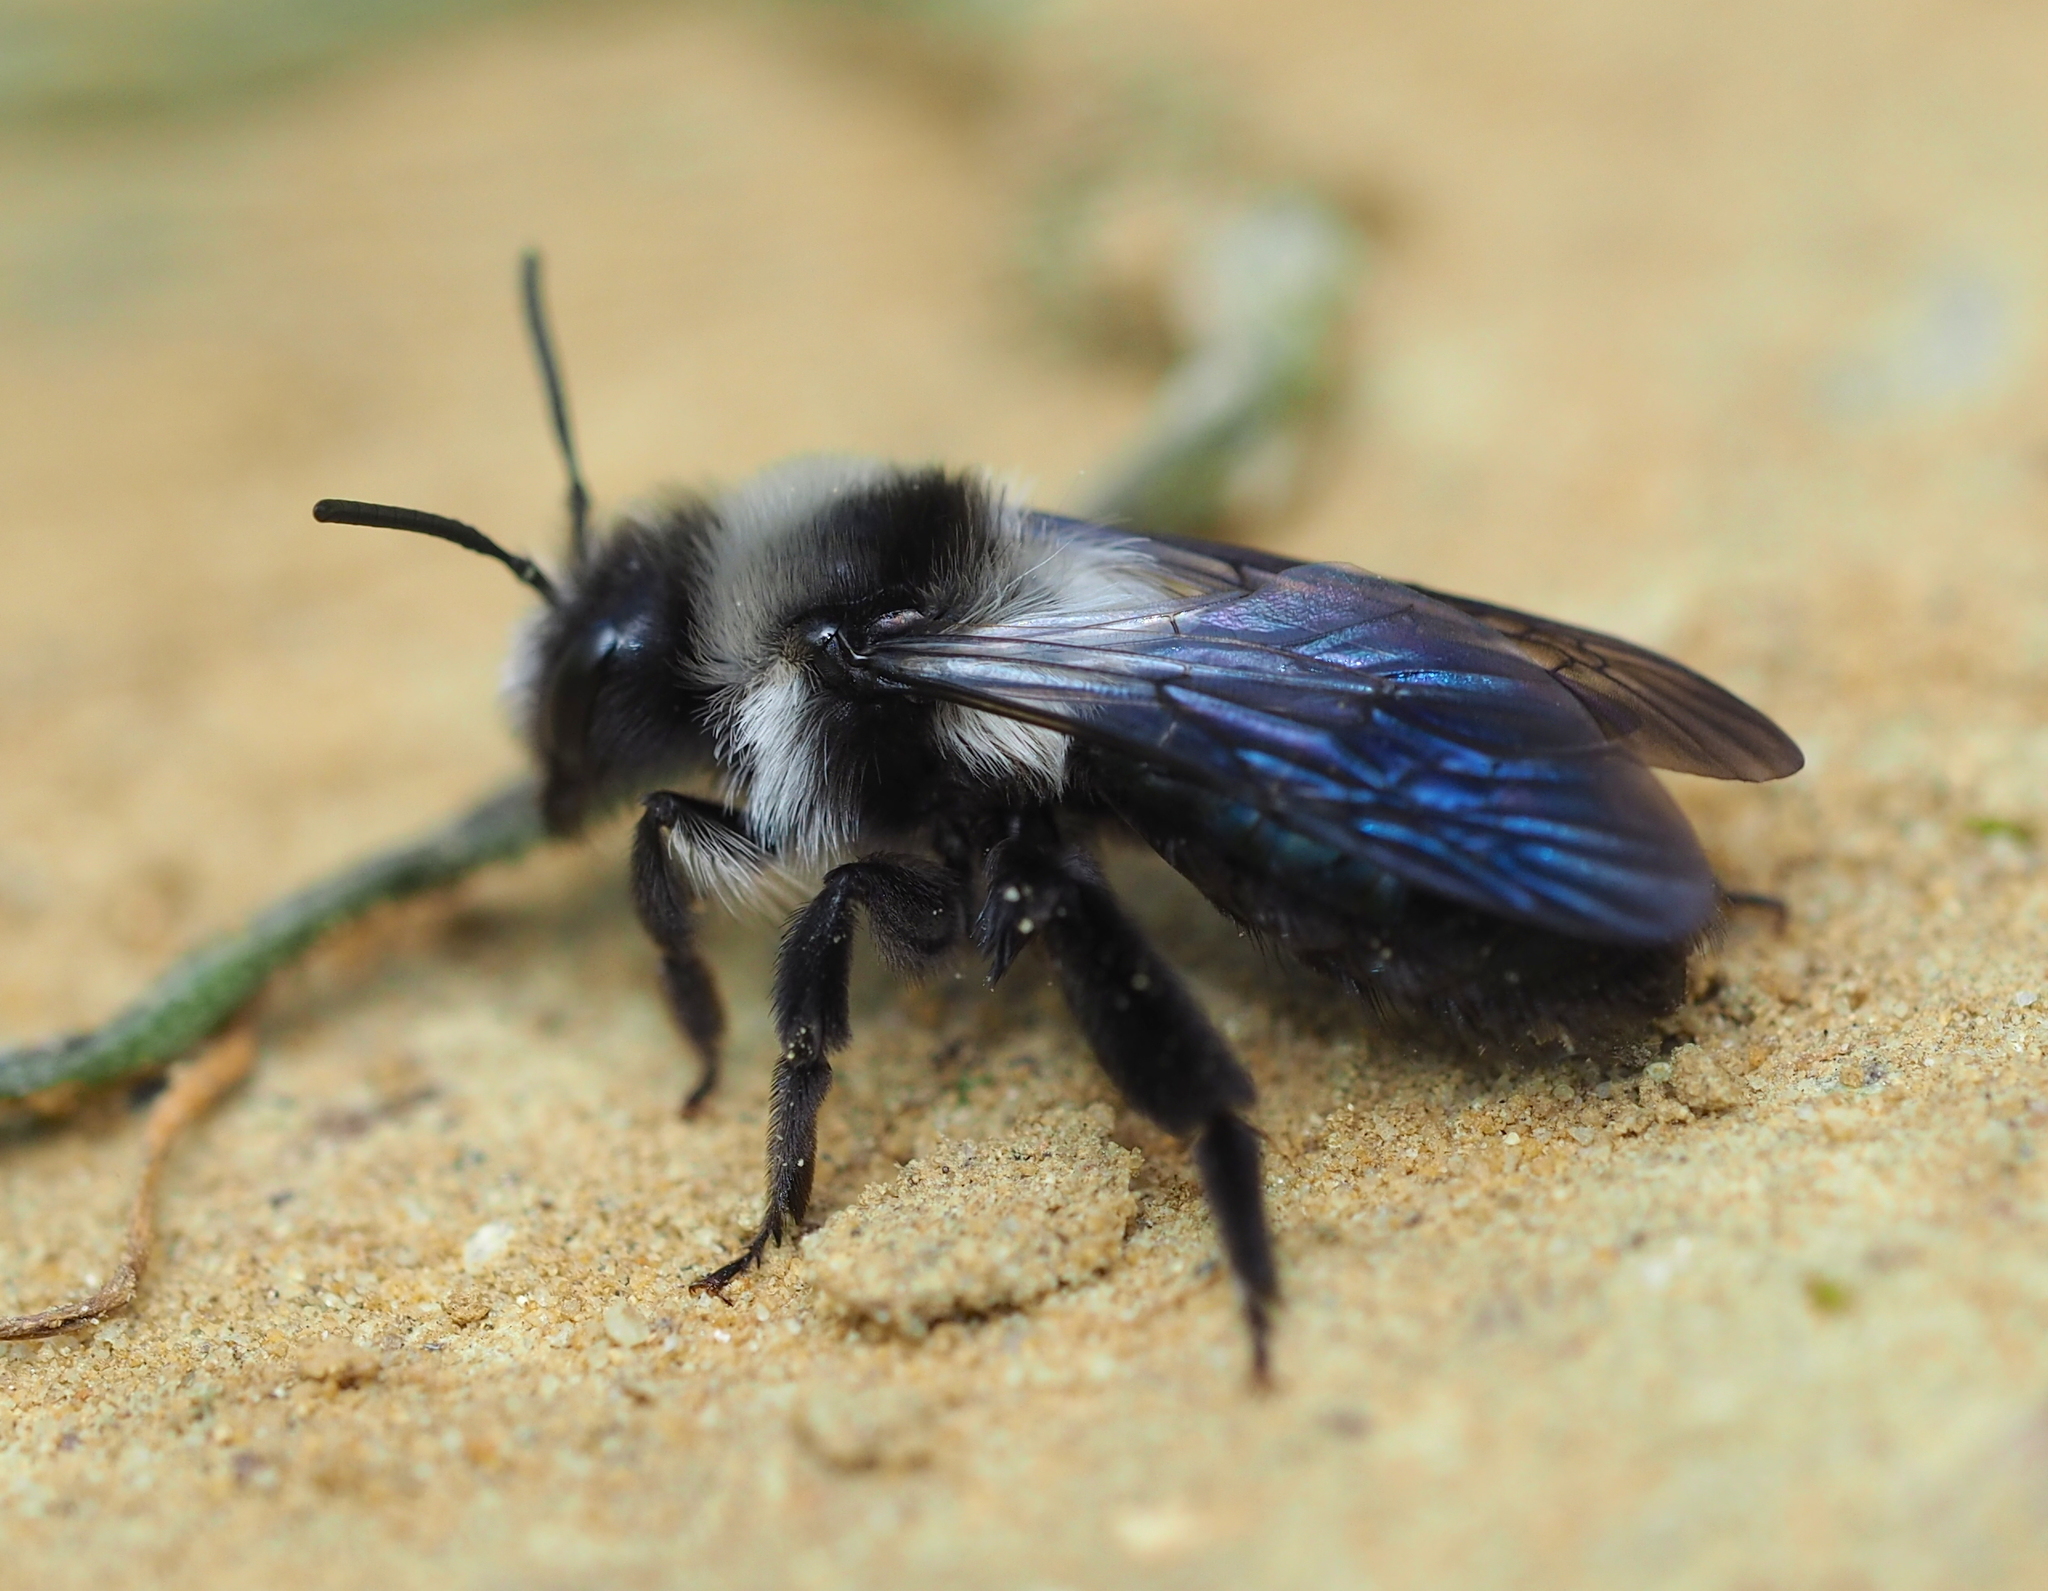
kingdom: Animalia
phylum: Arthropoda
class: Insecta
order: Hymenoptera
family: Andrenidae
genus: Andrena
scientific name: Andrena cineraria
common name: Ashy mining bee
